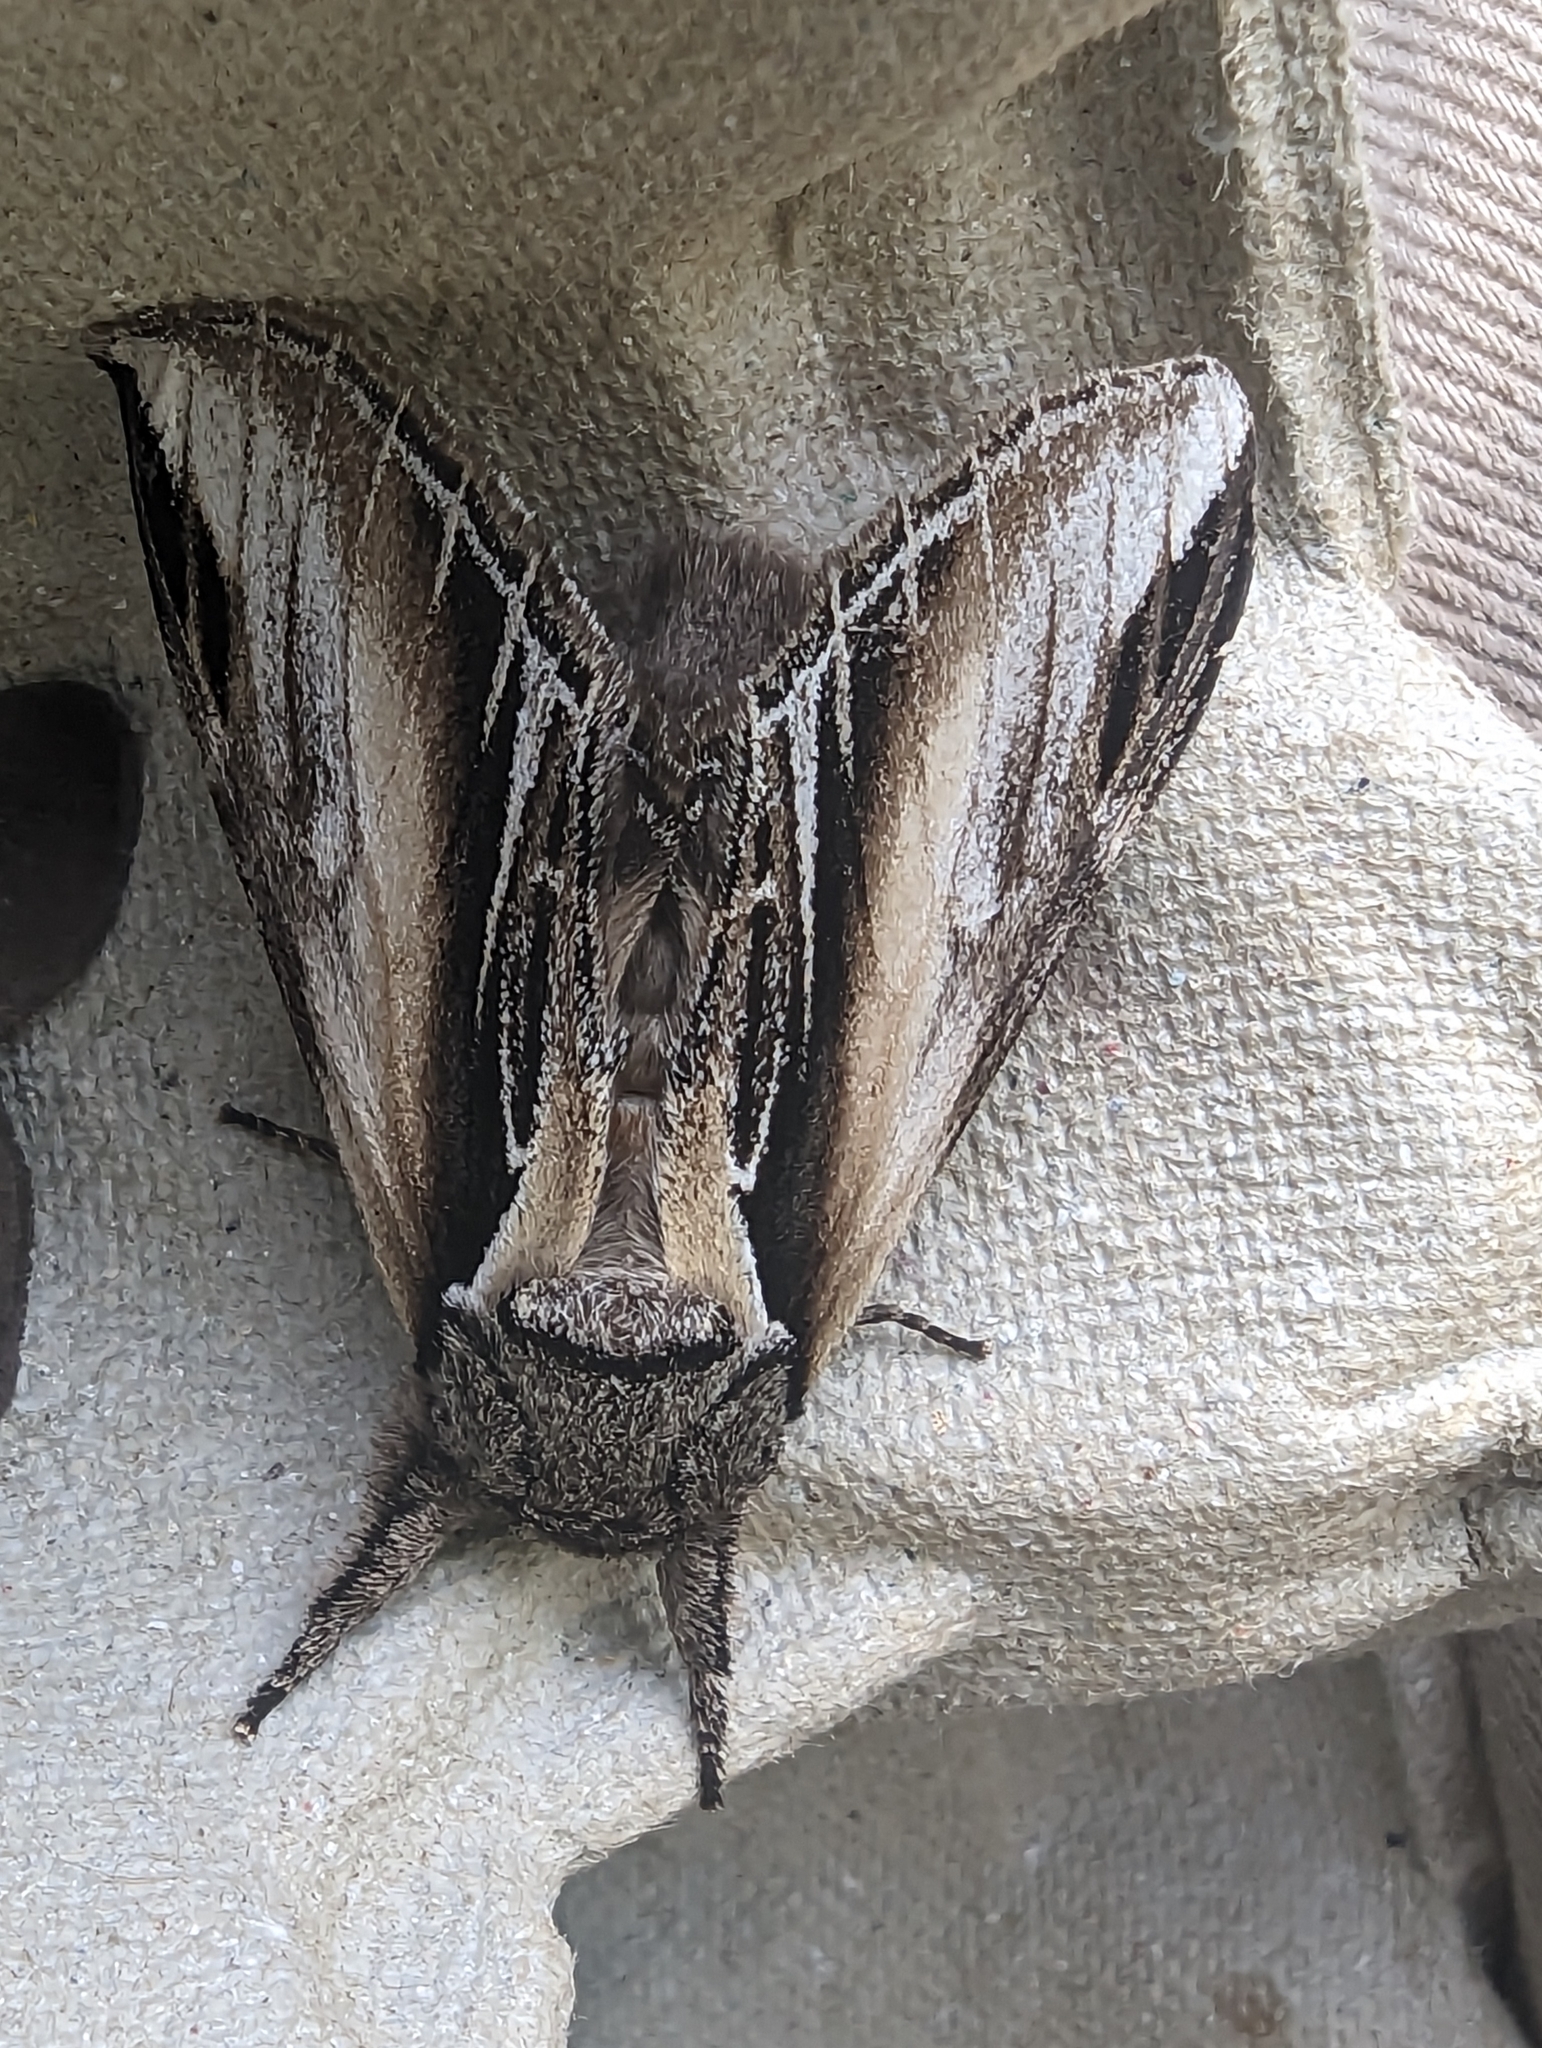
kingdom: Animalia
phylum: Arthropoda
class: Insecta
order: Lepidoptera
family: Notodontidae
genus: Pheosia
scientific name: Pheosia tremula
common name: Swallow prominent
